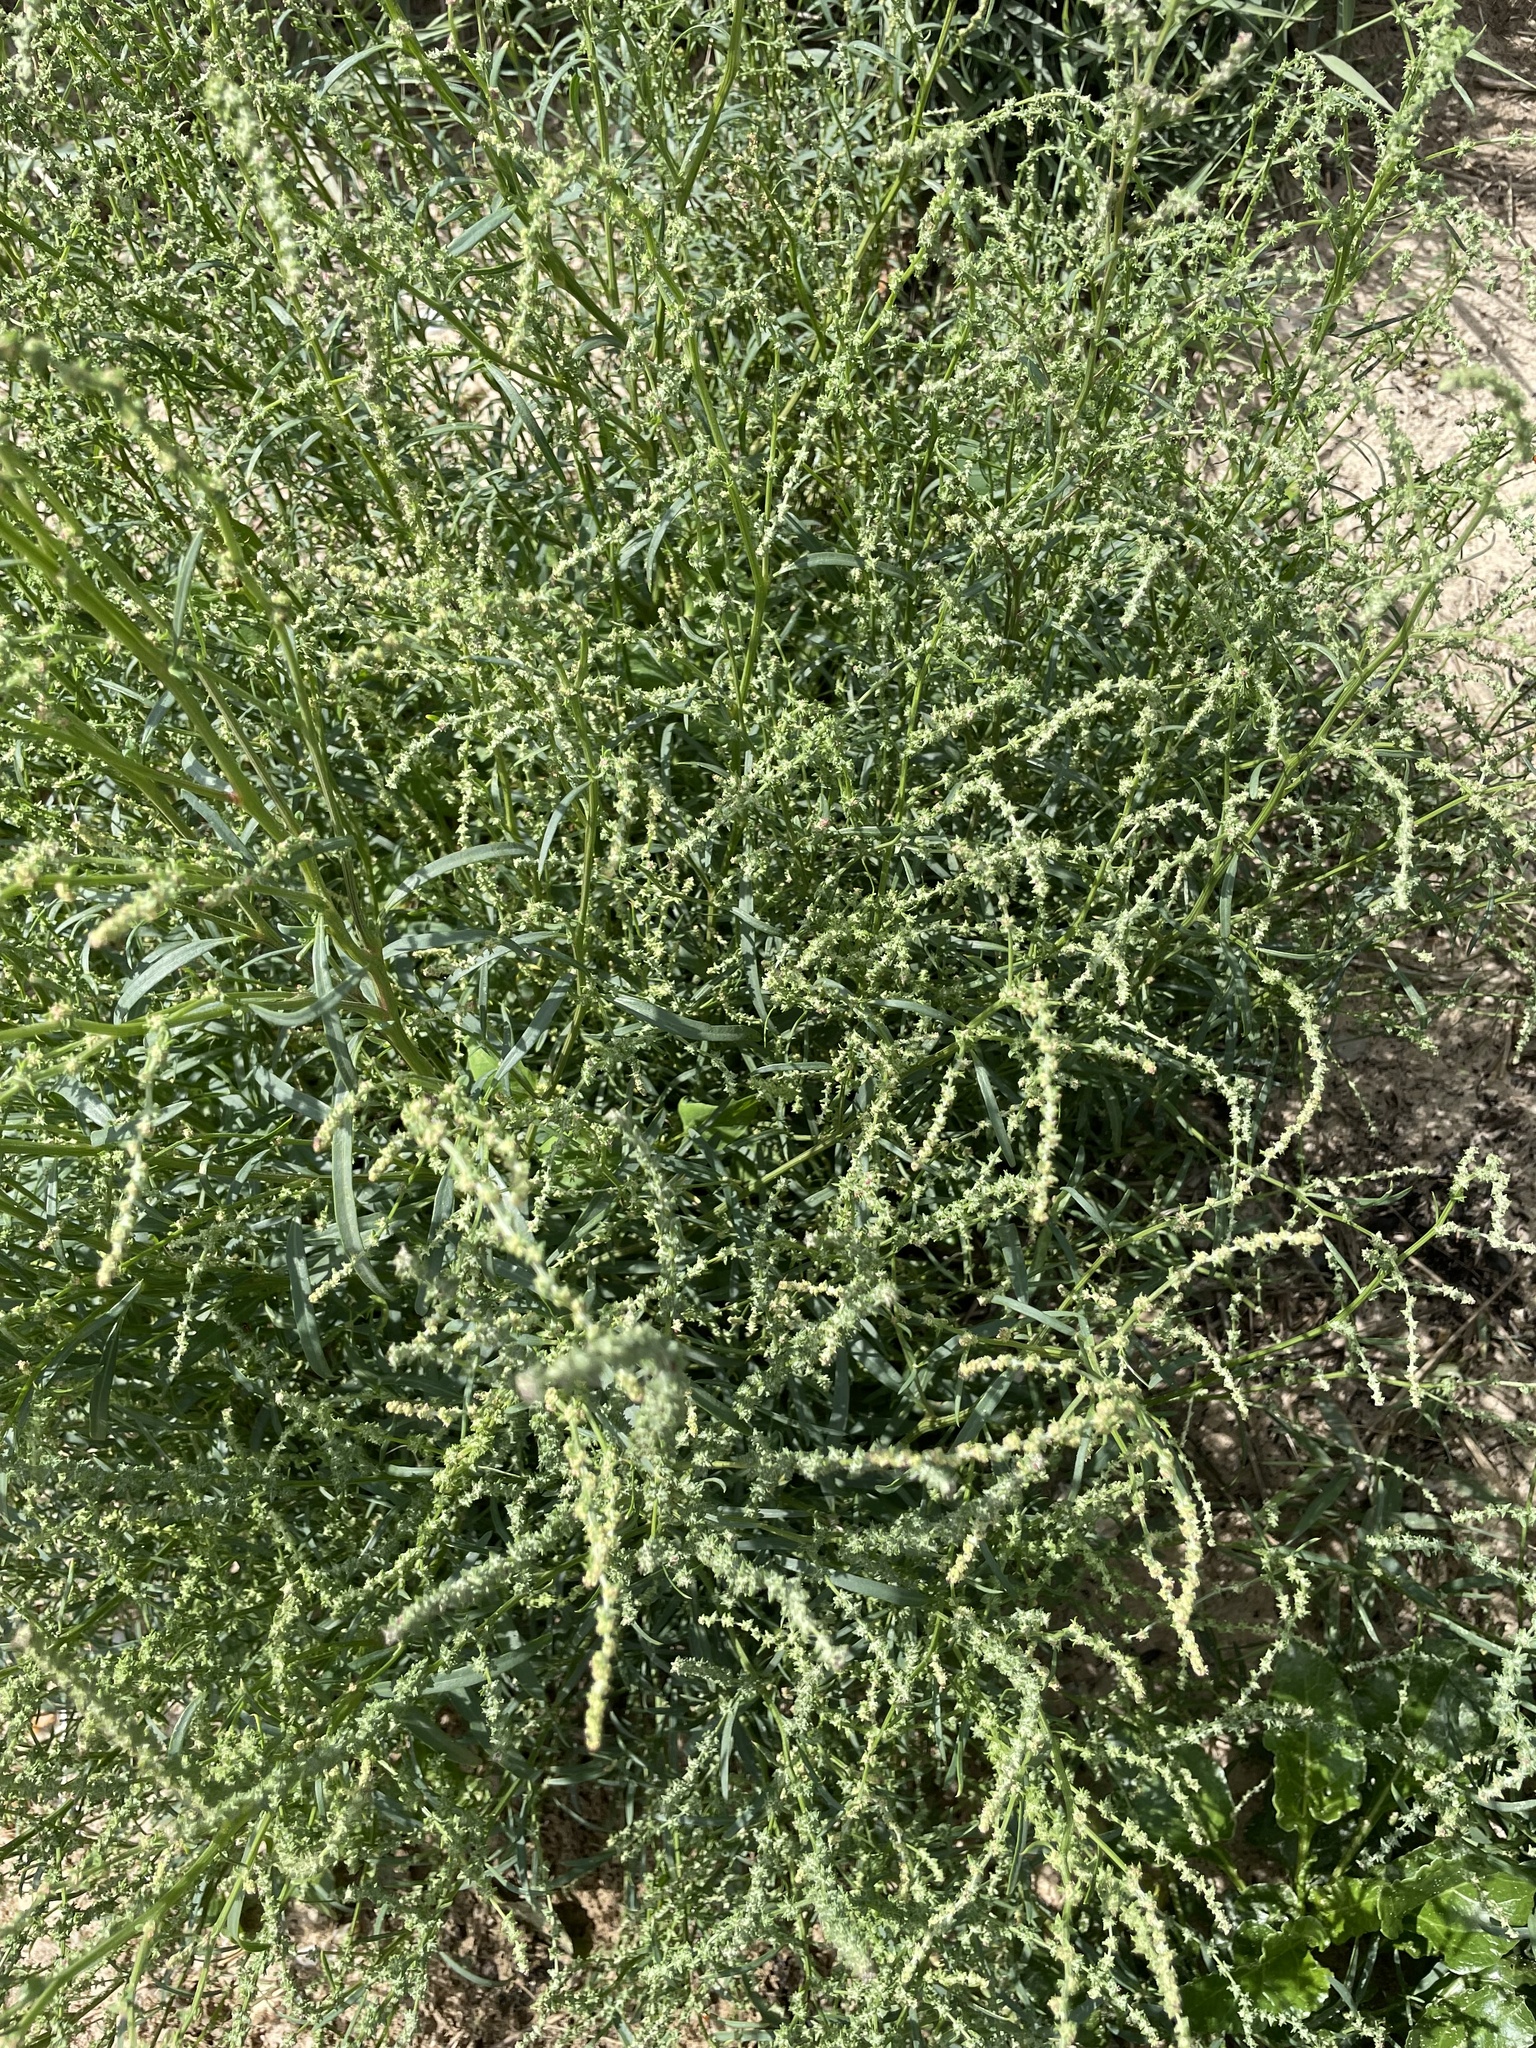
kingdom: Plantae
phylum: Tracheophyta
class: Magnoliopsida
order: Caryophyllales
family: Amaranthaceae
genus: Atriplex
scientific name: Atriplex littoralis
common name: Grass-leaved orache
